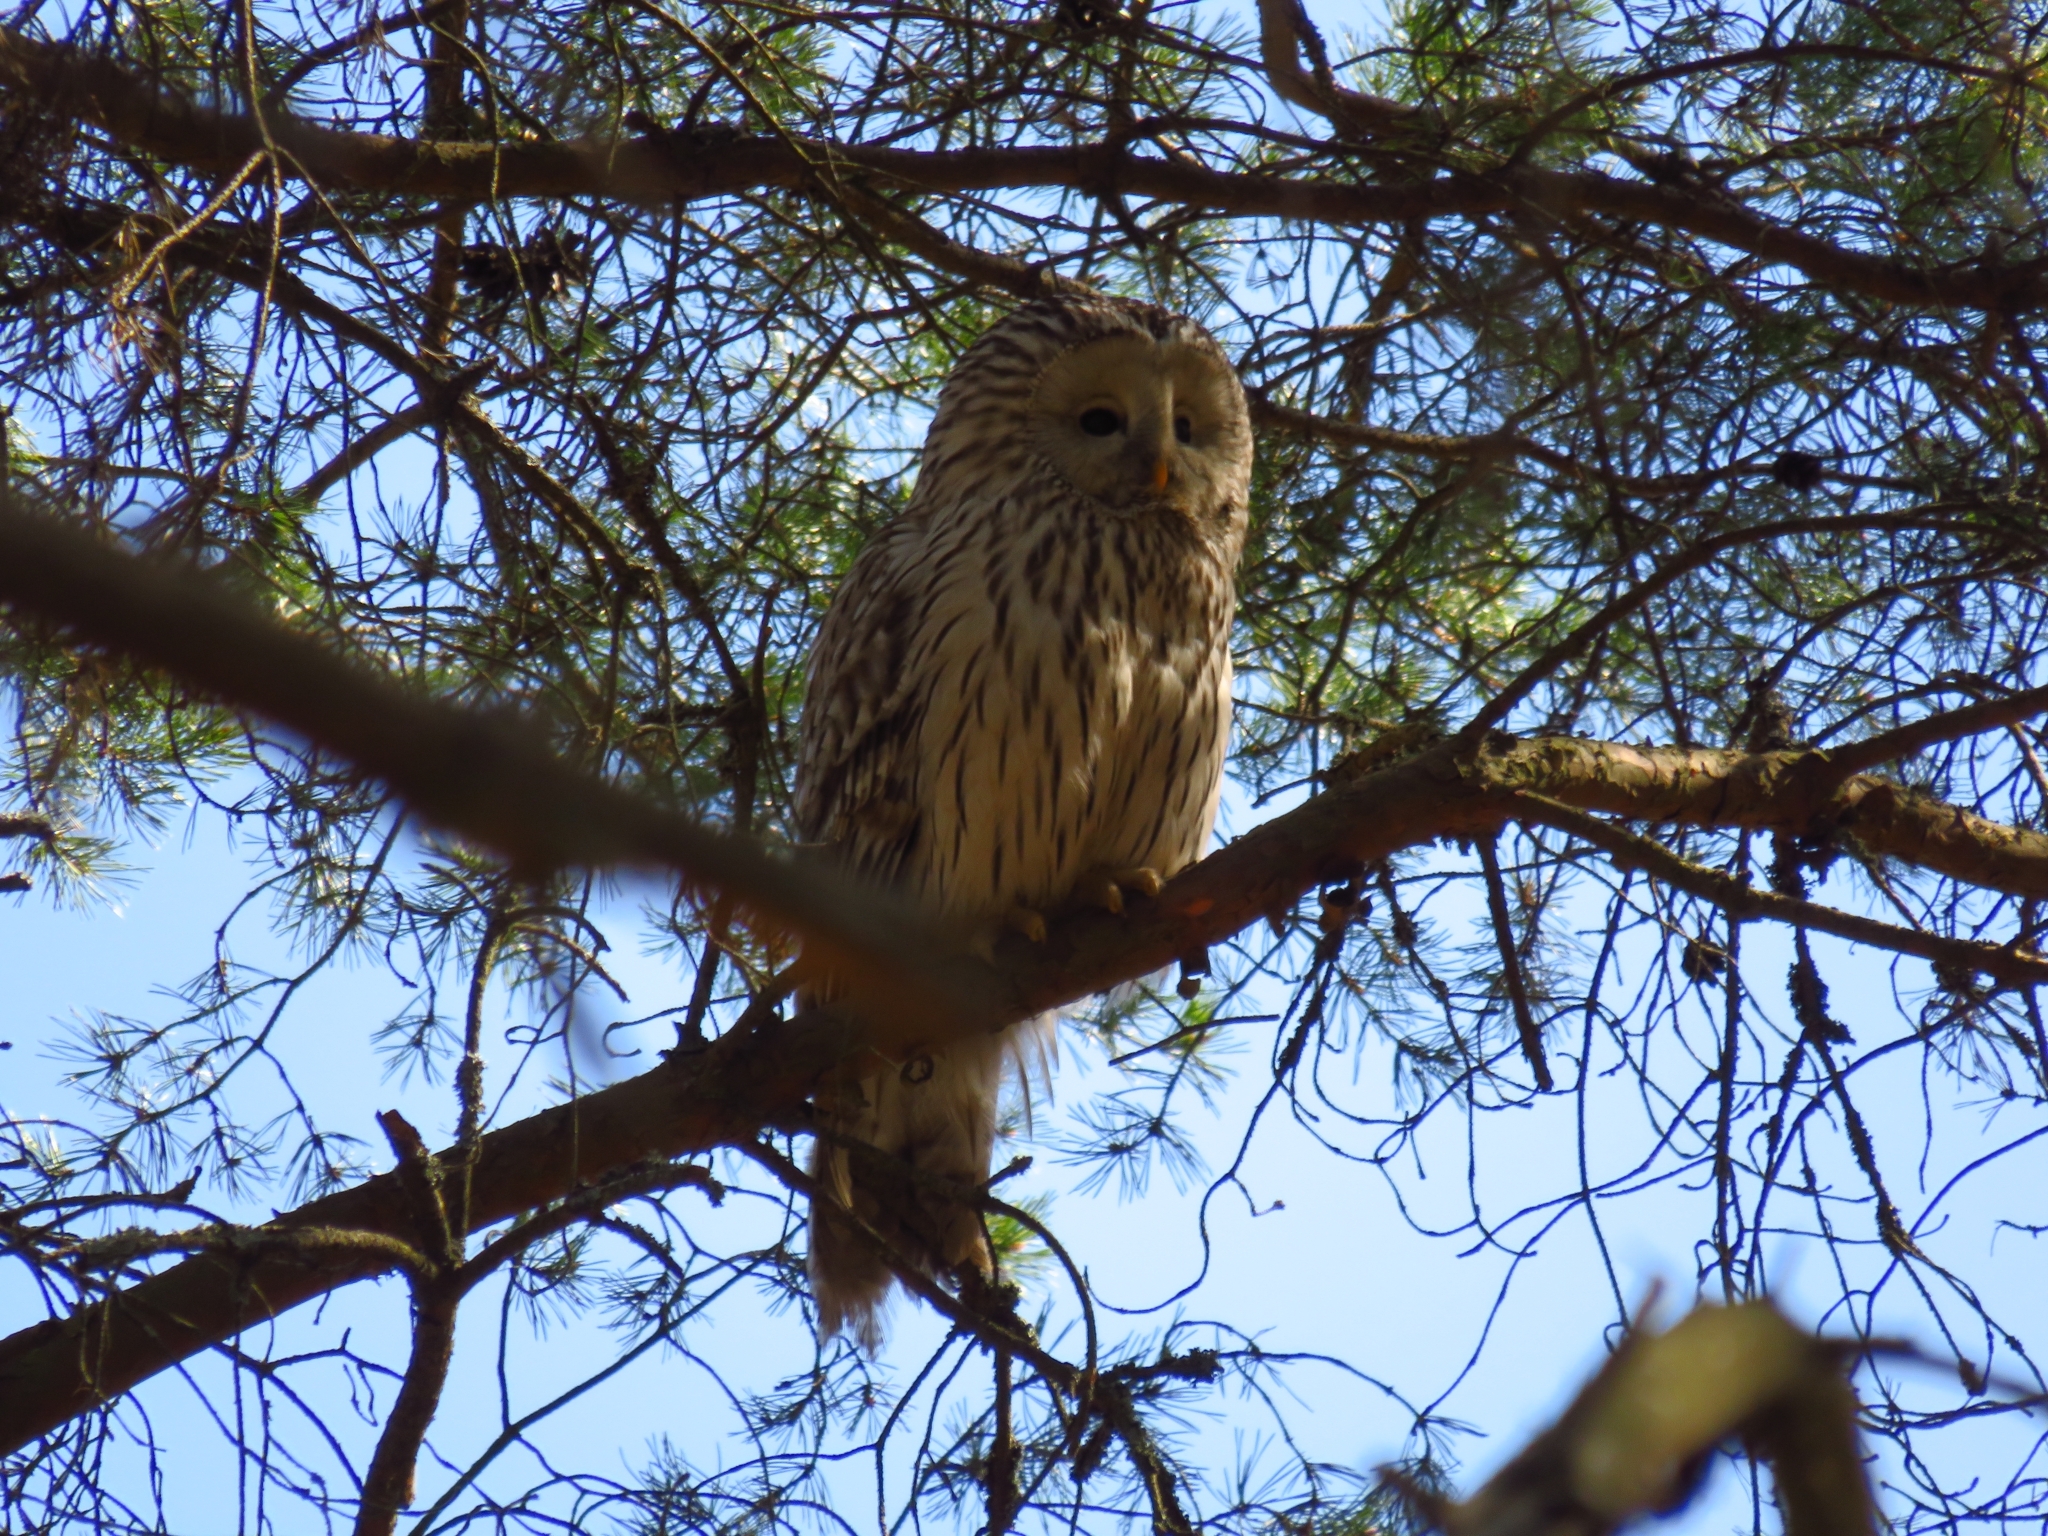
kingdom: Animalia
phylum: Chordata
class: Aves
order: Strigiformes
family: Strigidae
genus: Strix
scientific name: Strix uralensis
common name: Ural owl
